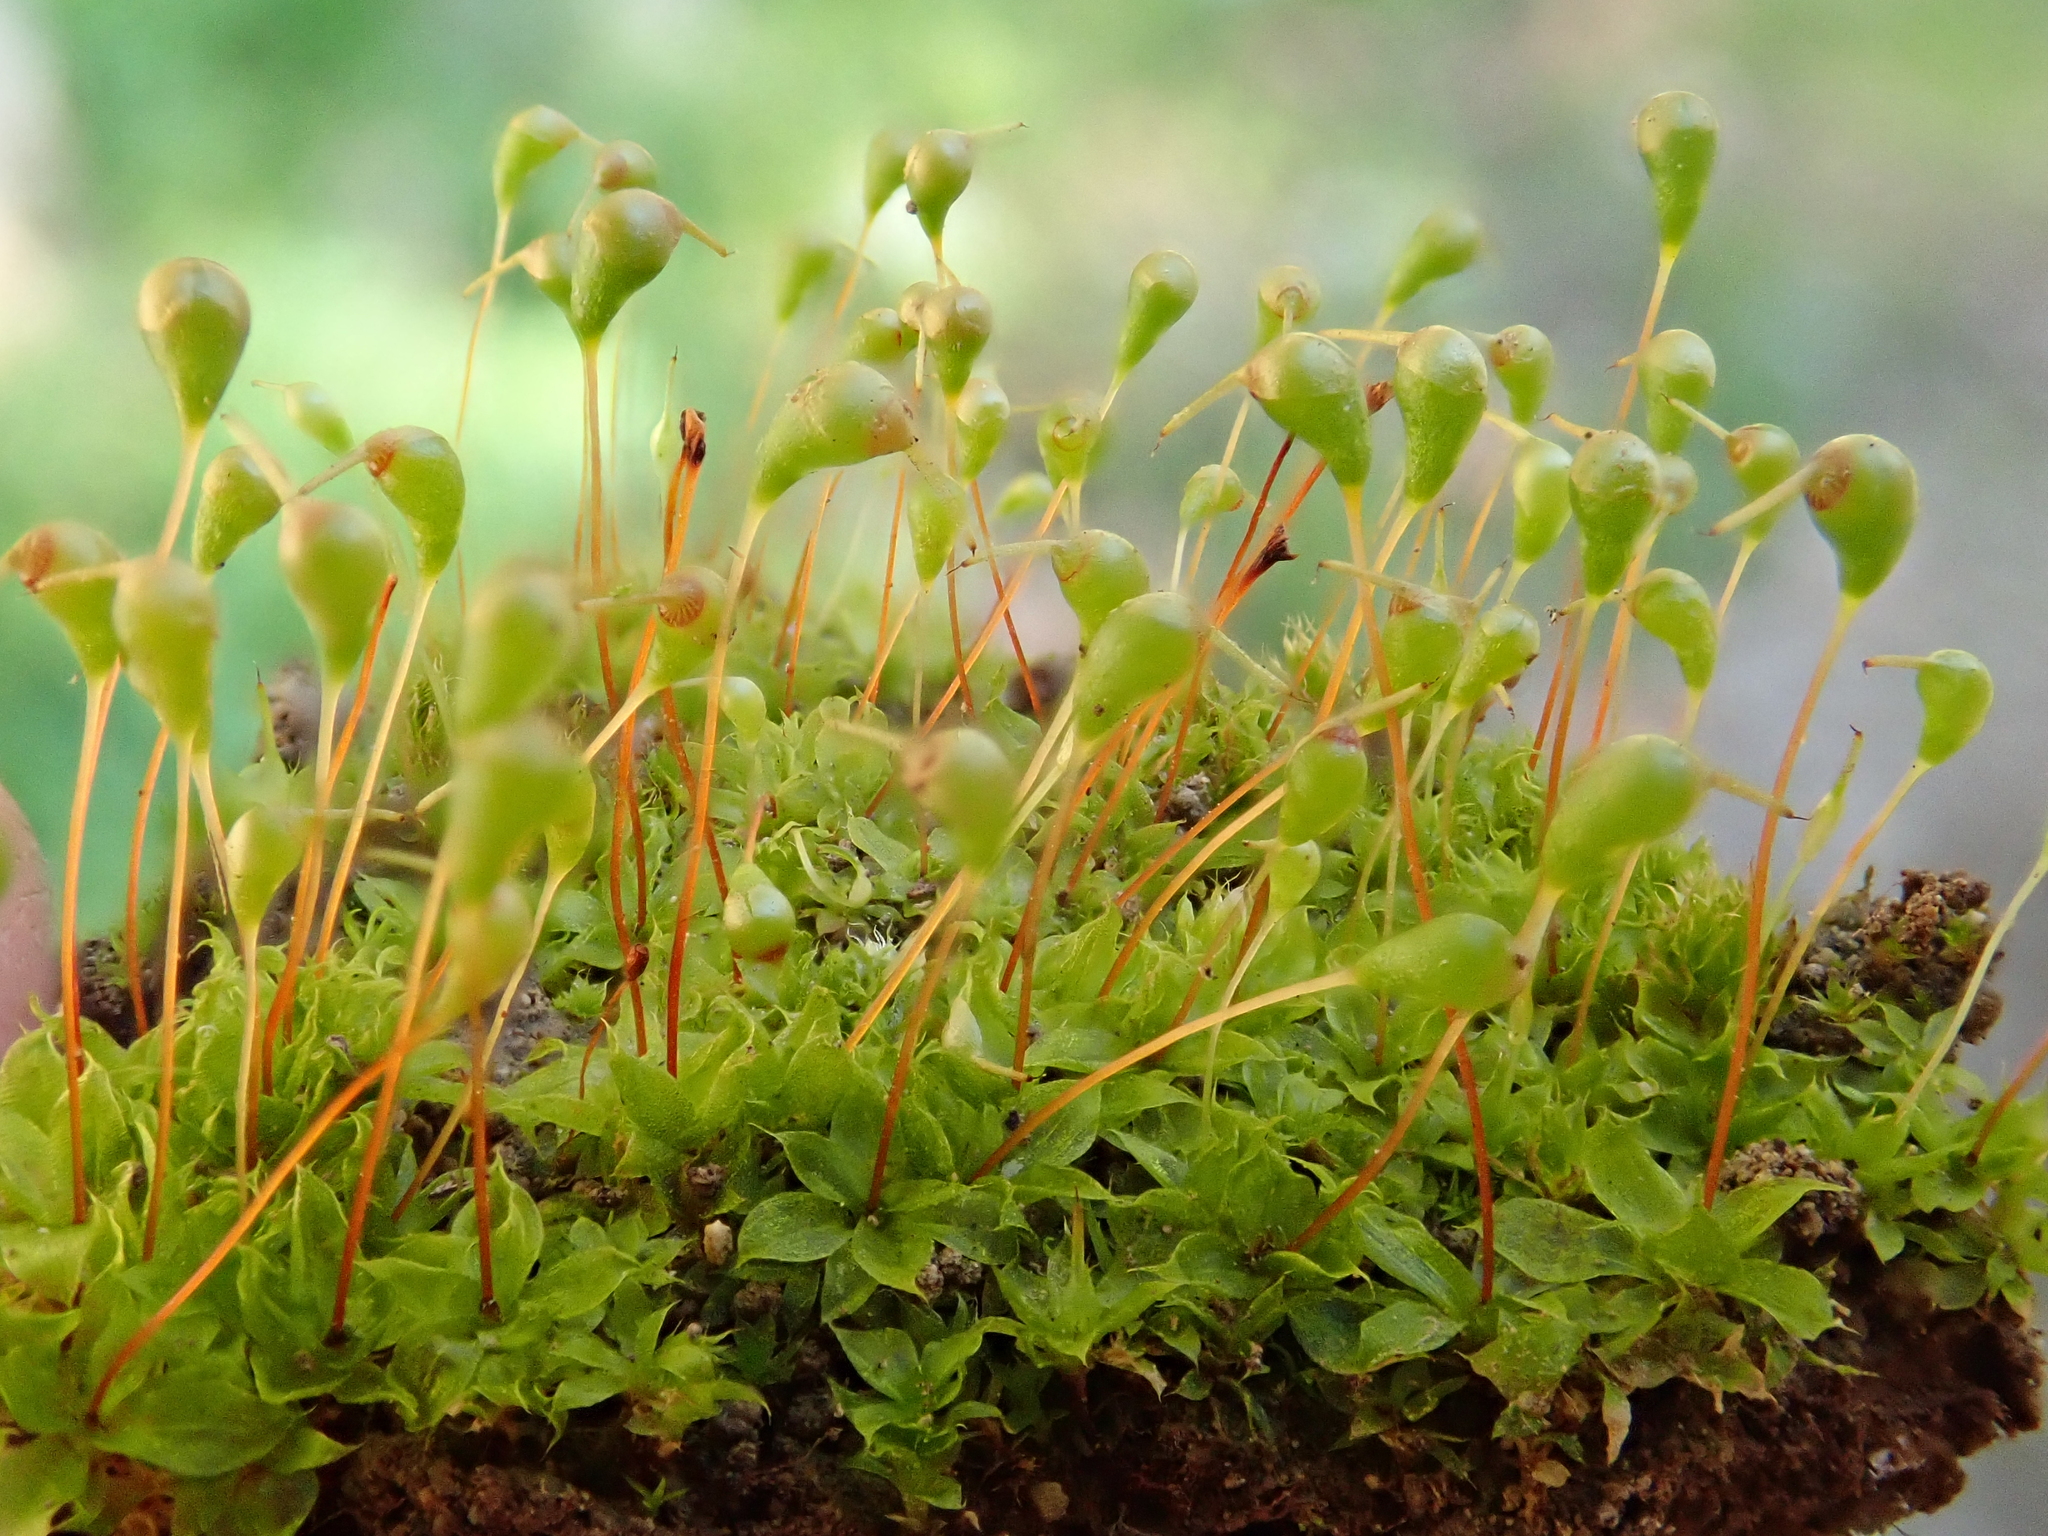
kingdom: Plantae
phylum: Bryophyta
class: Bryopsida
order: Funariales
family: Funariaceae
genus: Entosthodon
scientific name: Entosthodon muhlenbergii
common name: Muhlenberg's cord-moss
